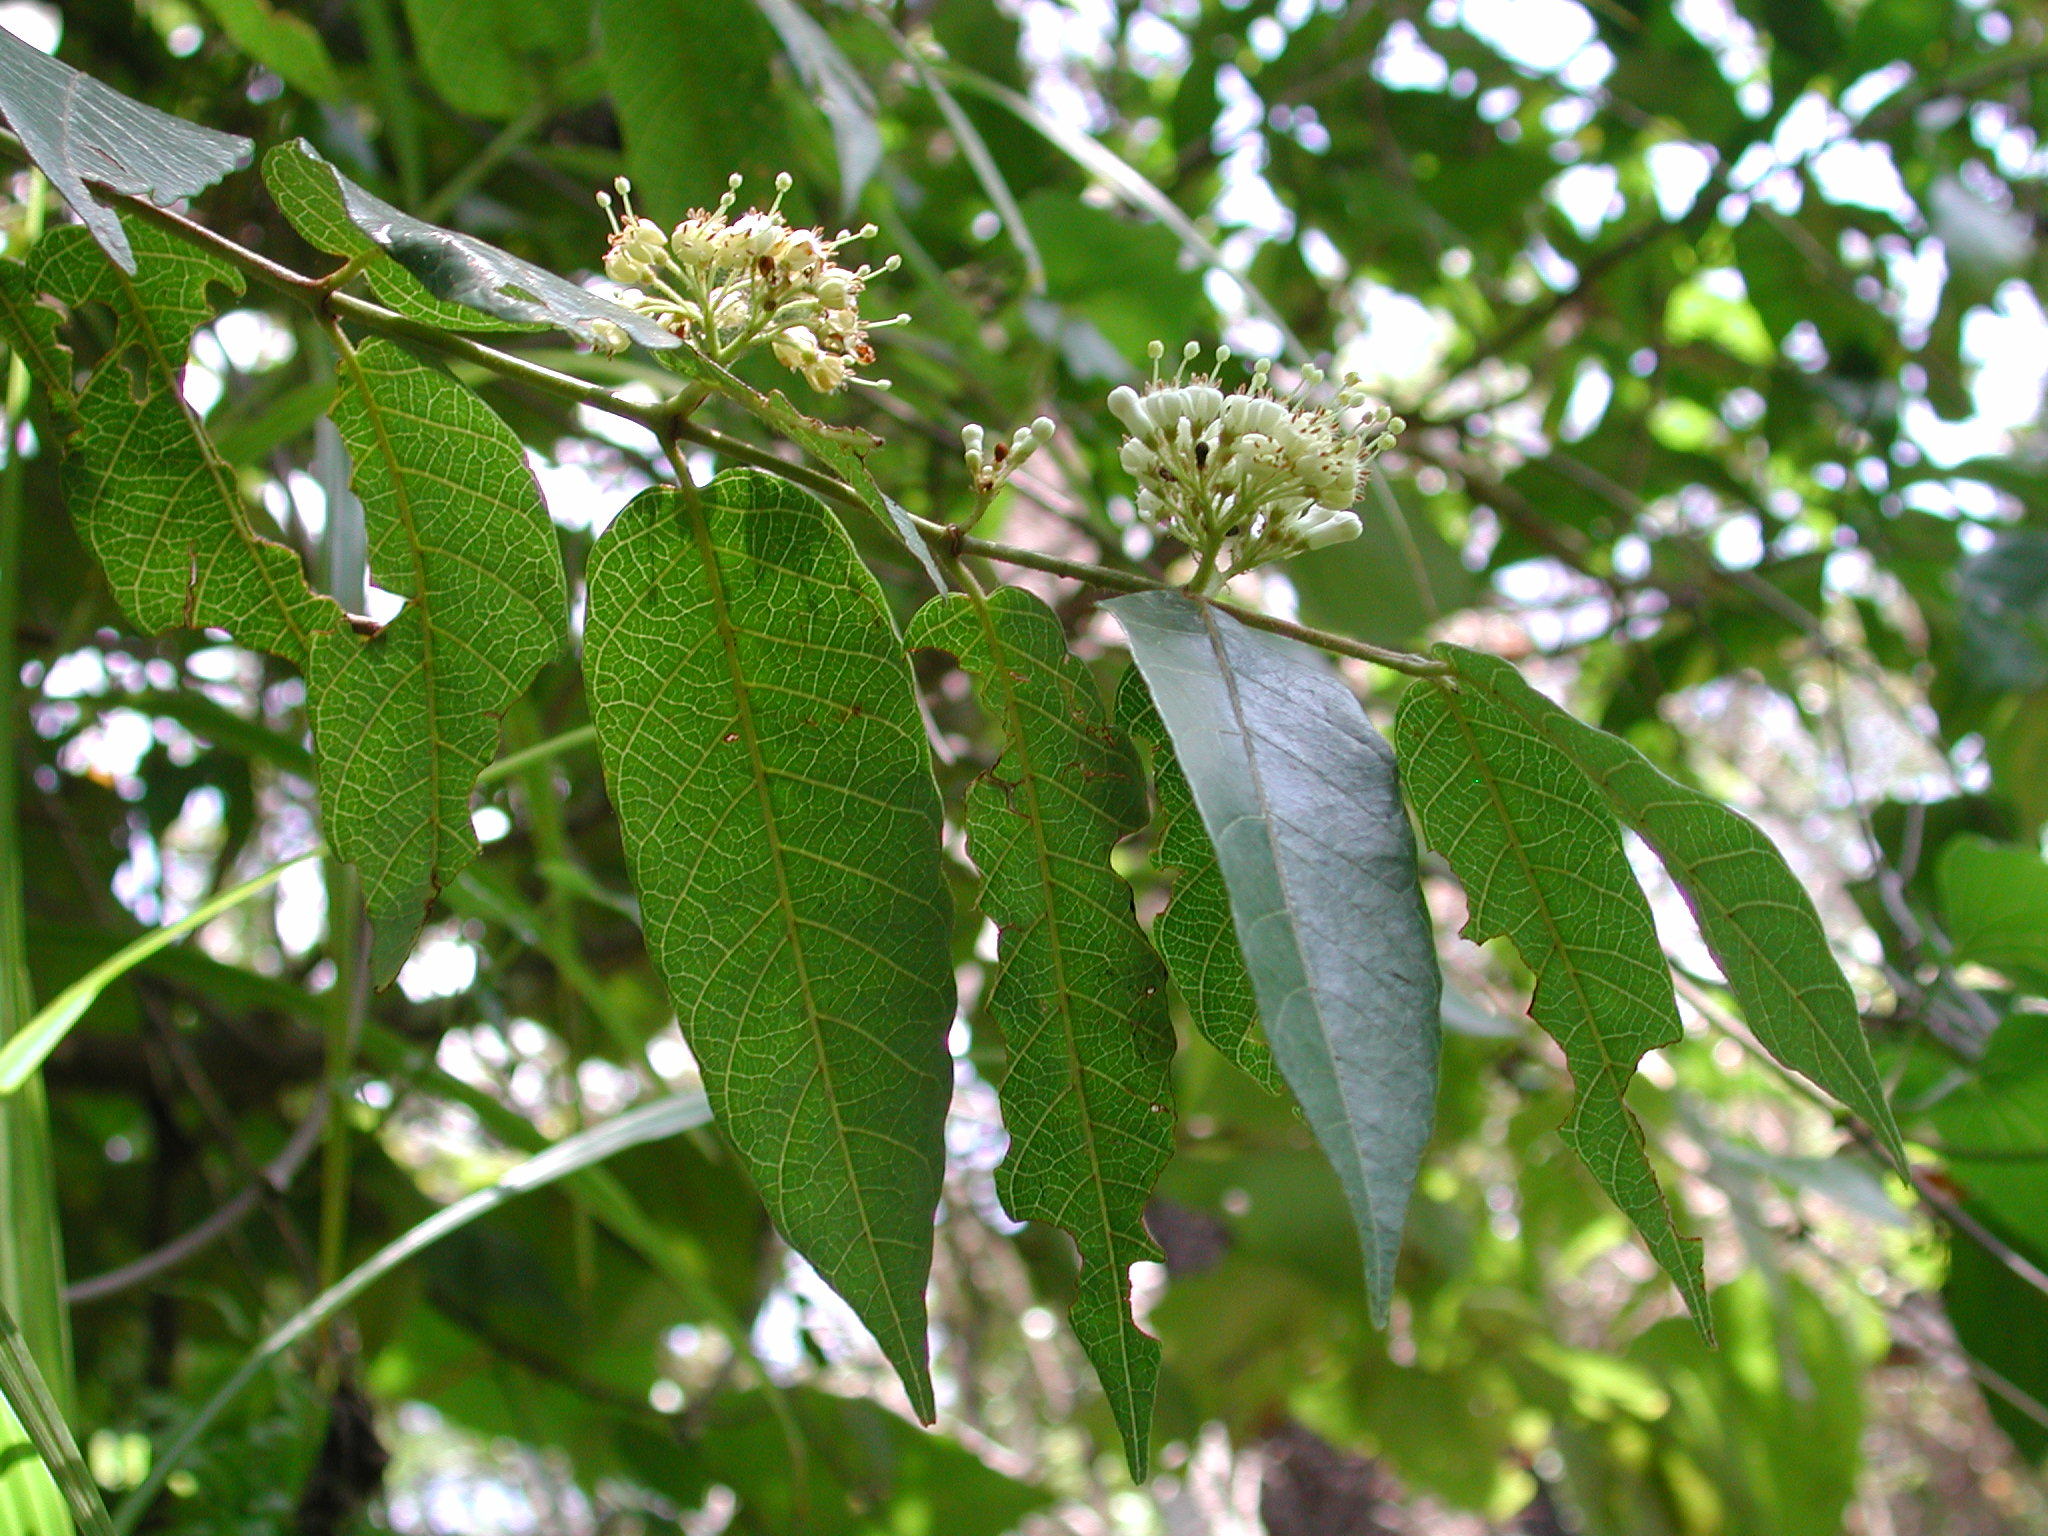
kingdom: Plantae
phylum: Tracheophyta
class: Magnoliopsida
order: Gentianales
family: Rubiaceae
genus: Keetia
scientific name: Keetia gueinzii
